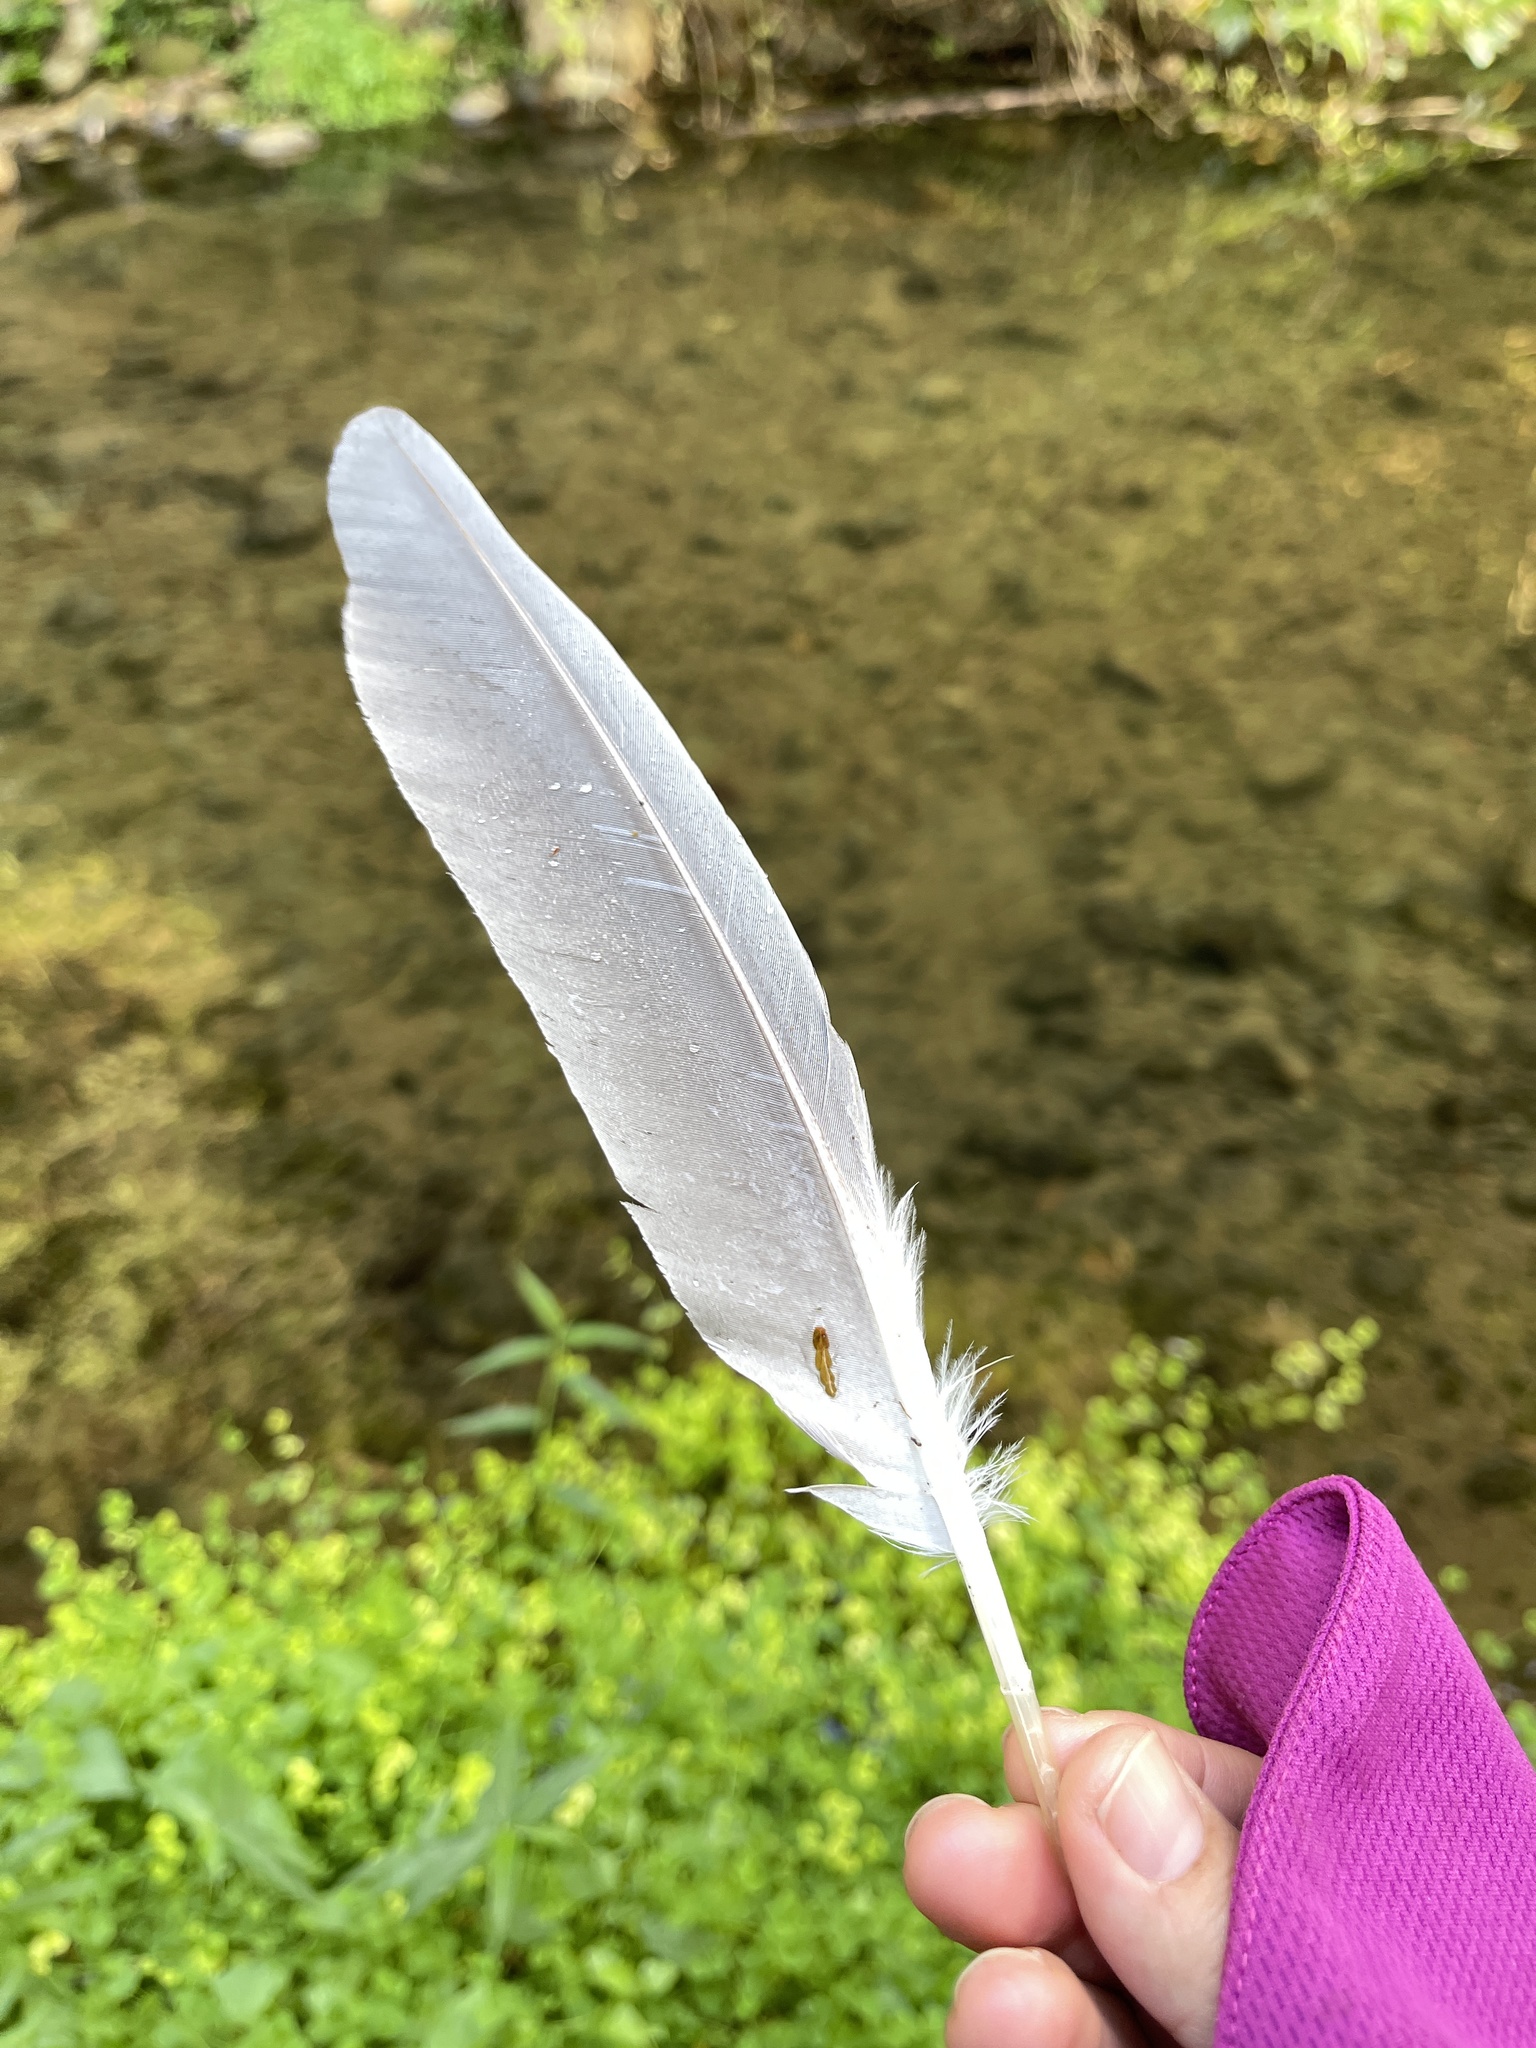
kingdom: Animalia
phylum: Chordata
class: Aves
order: Pelecaniformes
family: Ardeidae
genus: Nycticorax
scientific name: Nycticorax nycticorax
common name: Black-crowned night heron
